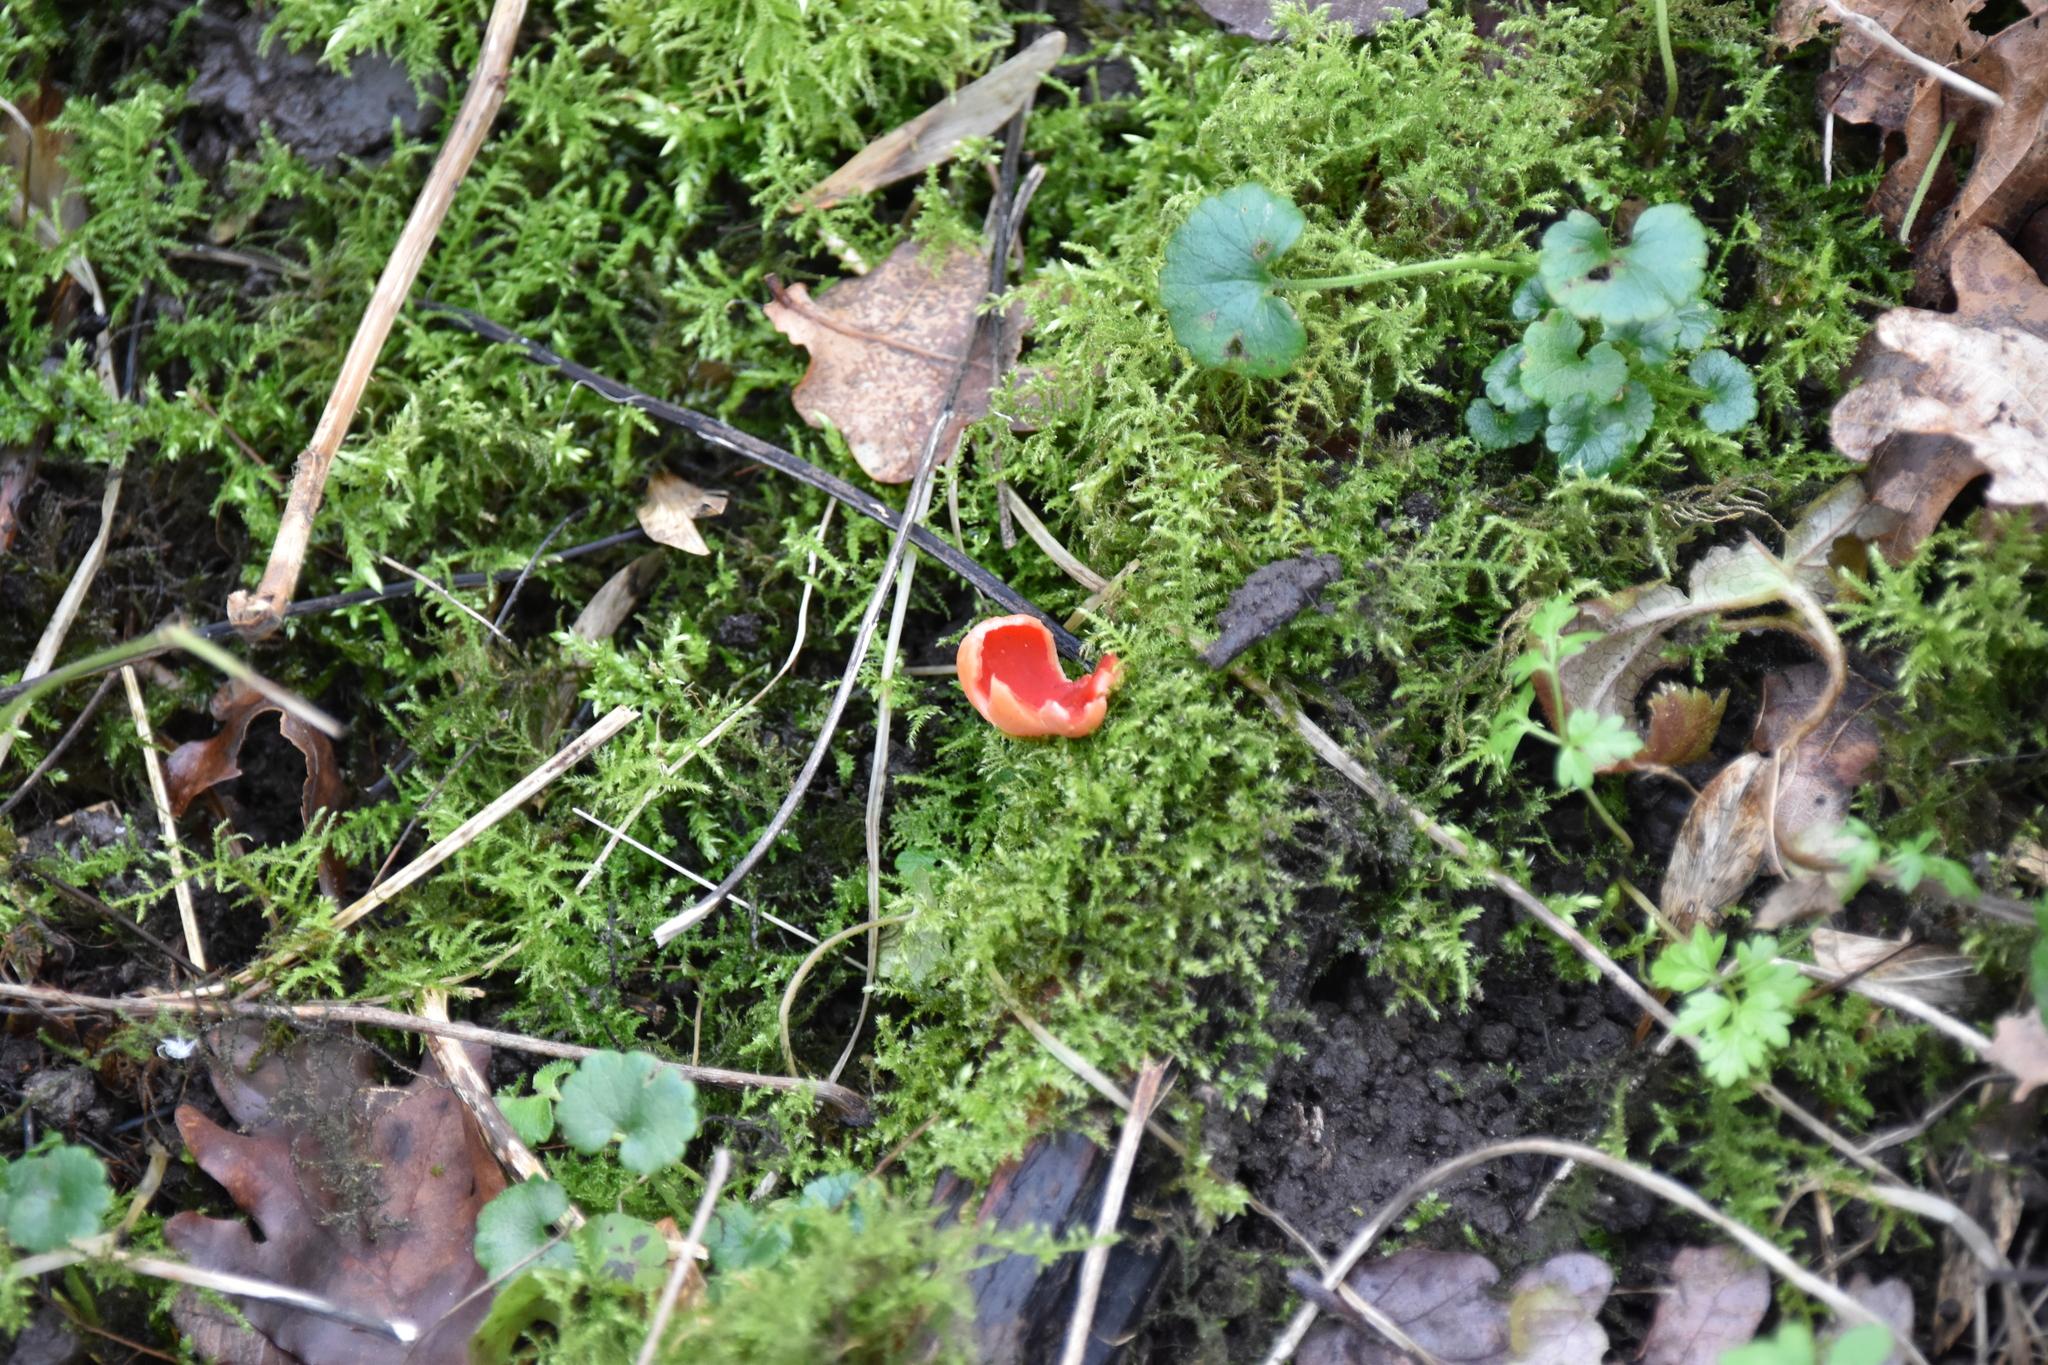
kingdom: Fungi
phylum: Ascomycota
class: Pezizomycetes
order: Pezizales
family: Sarcoscyphaceae
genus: Sarcoscypha
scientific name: Sarcoscypha
